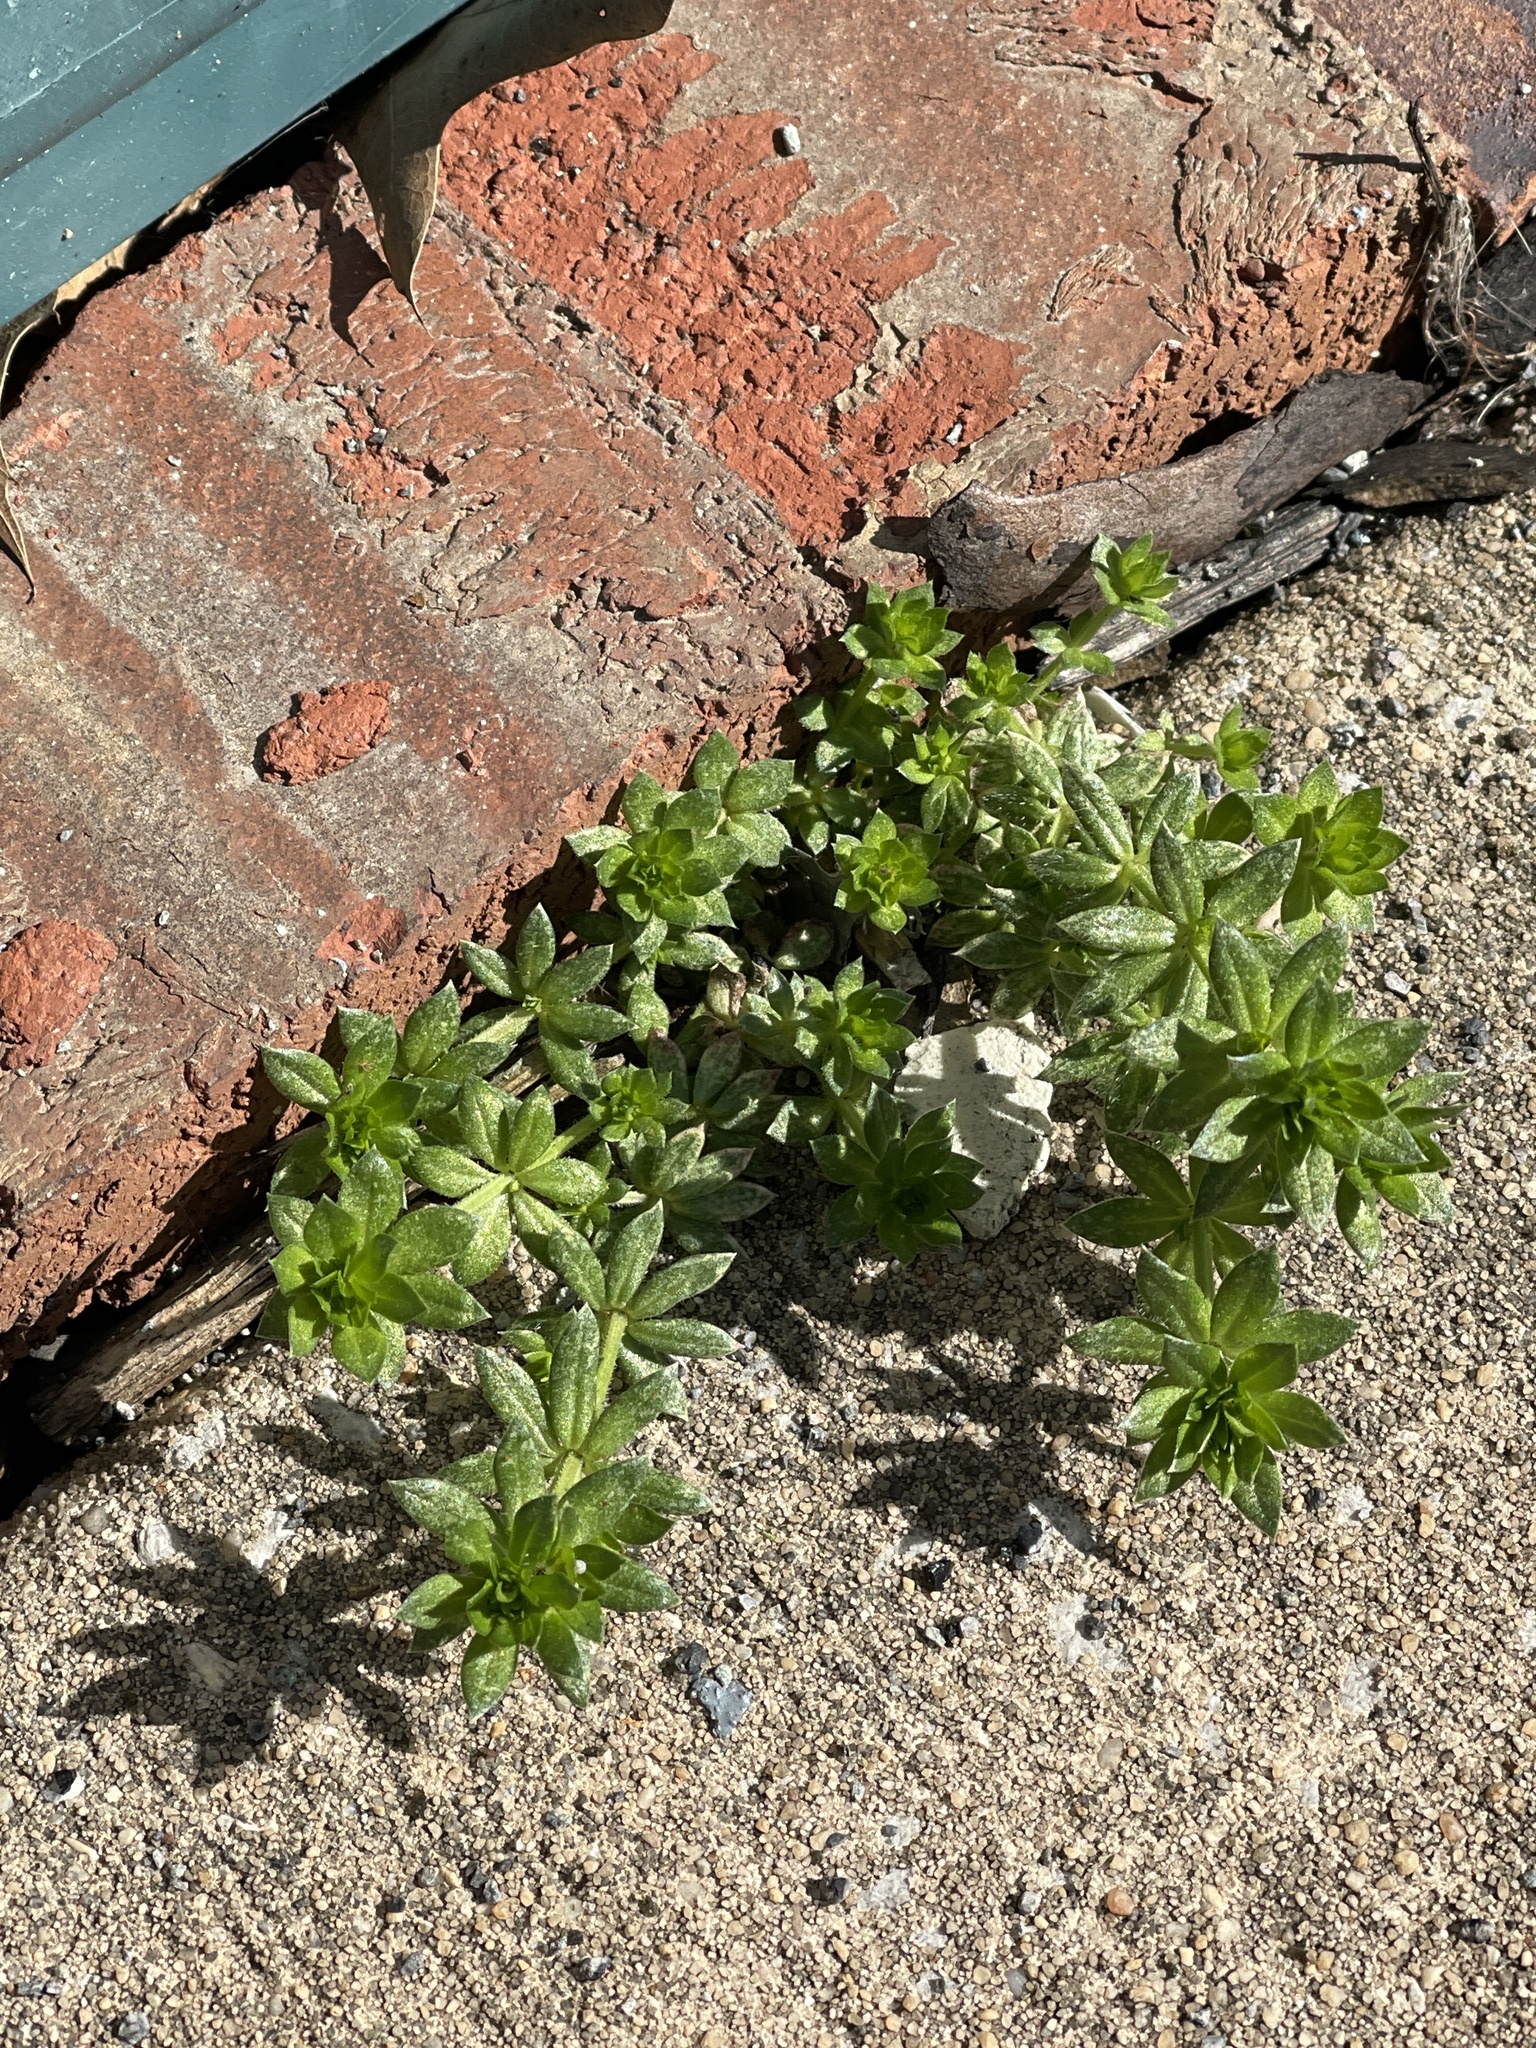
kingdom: Plantae
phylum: Tracheophyta
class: Magnoliopsida
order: Gentianales
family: Rubiaceae
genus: Sherardia
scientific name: Sherardia arvensis
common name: Field madder
